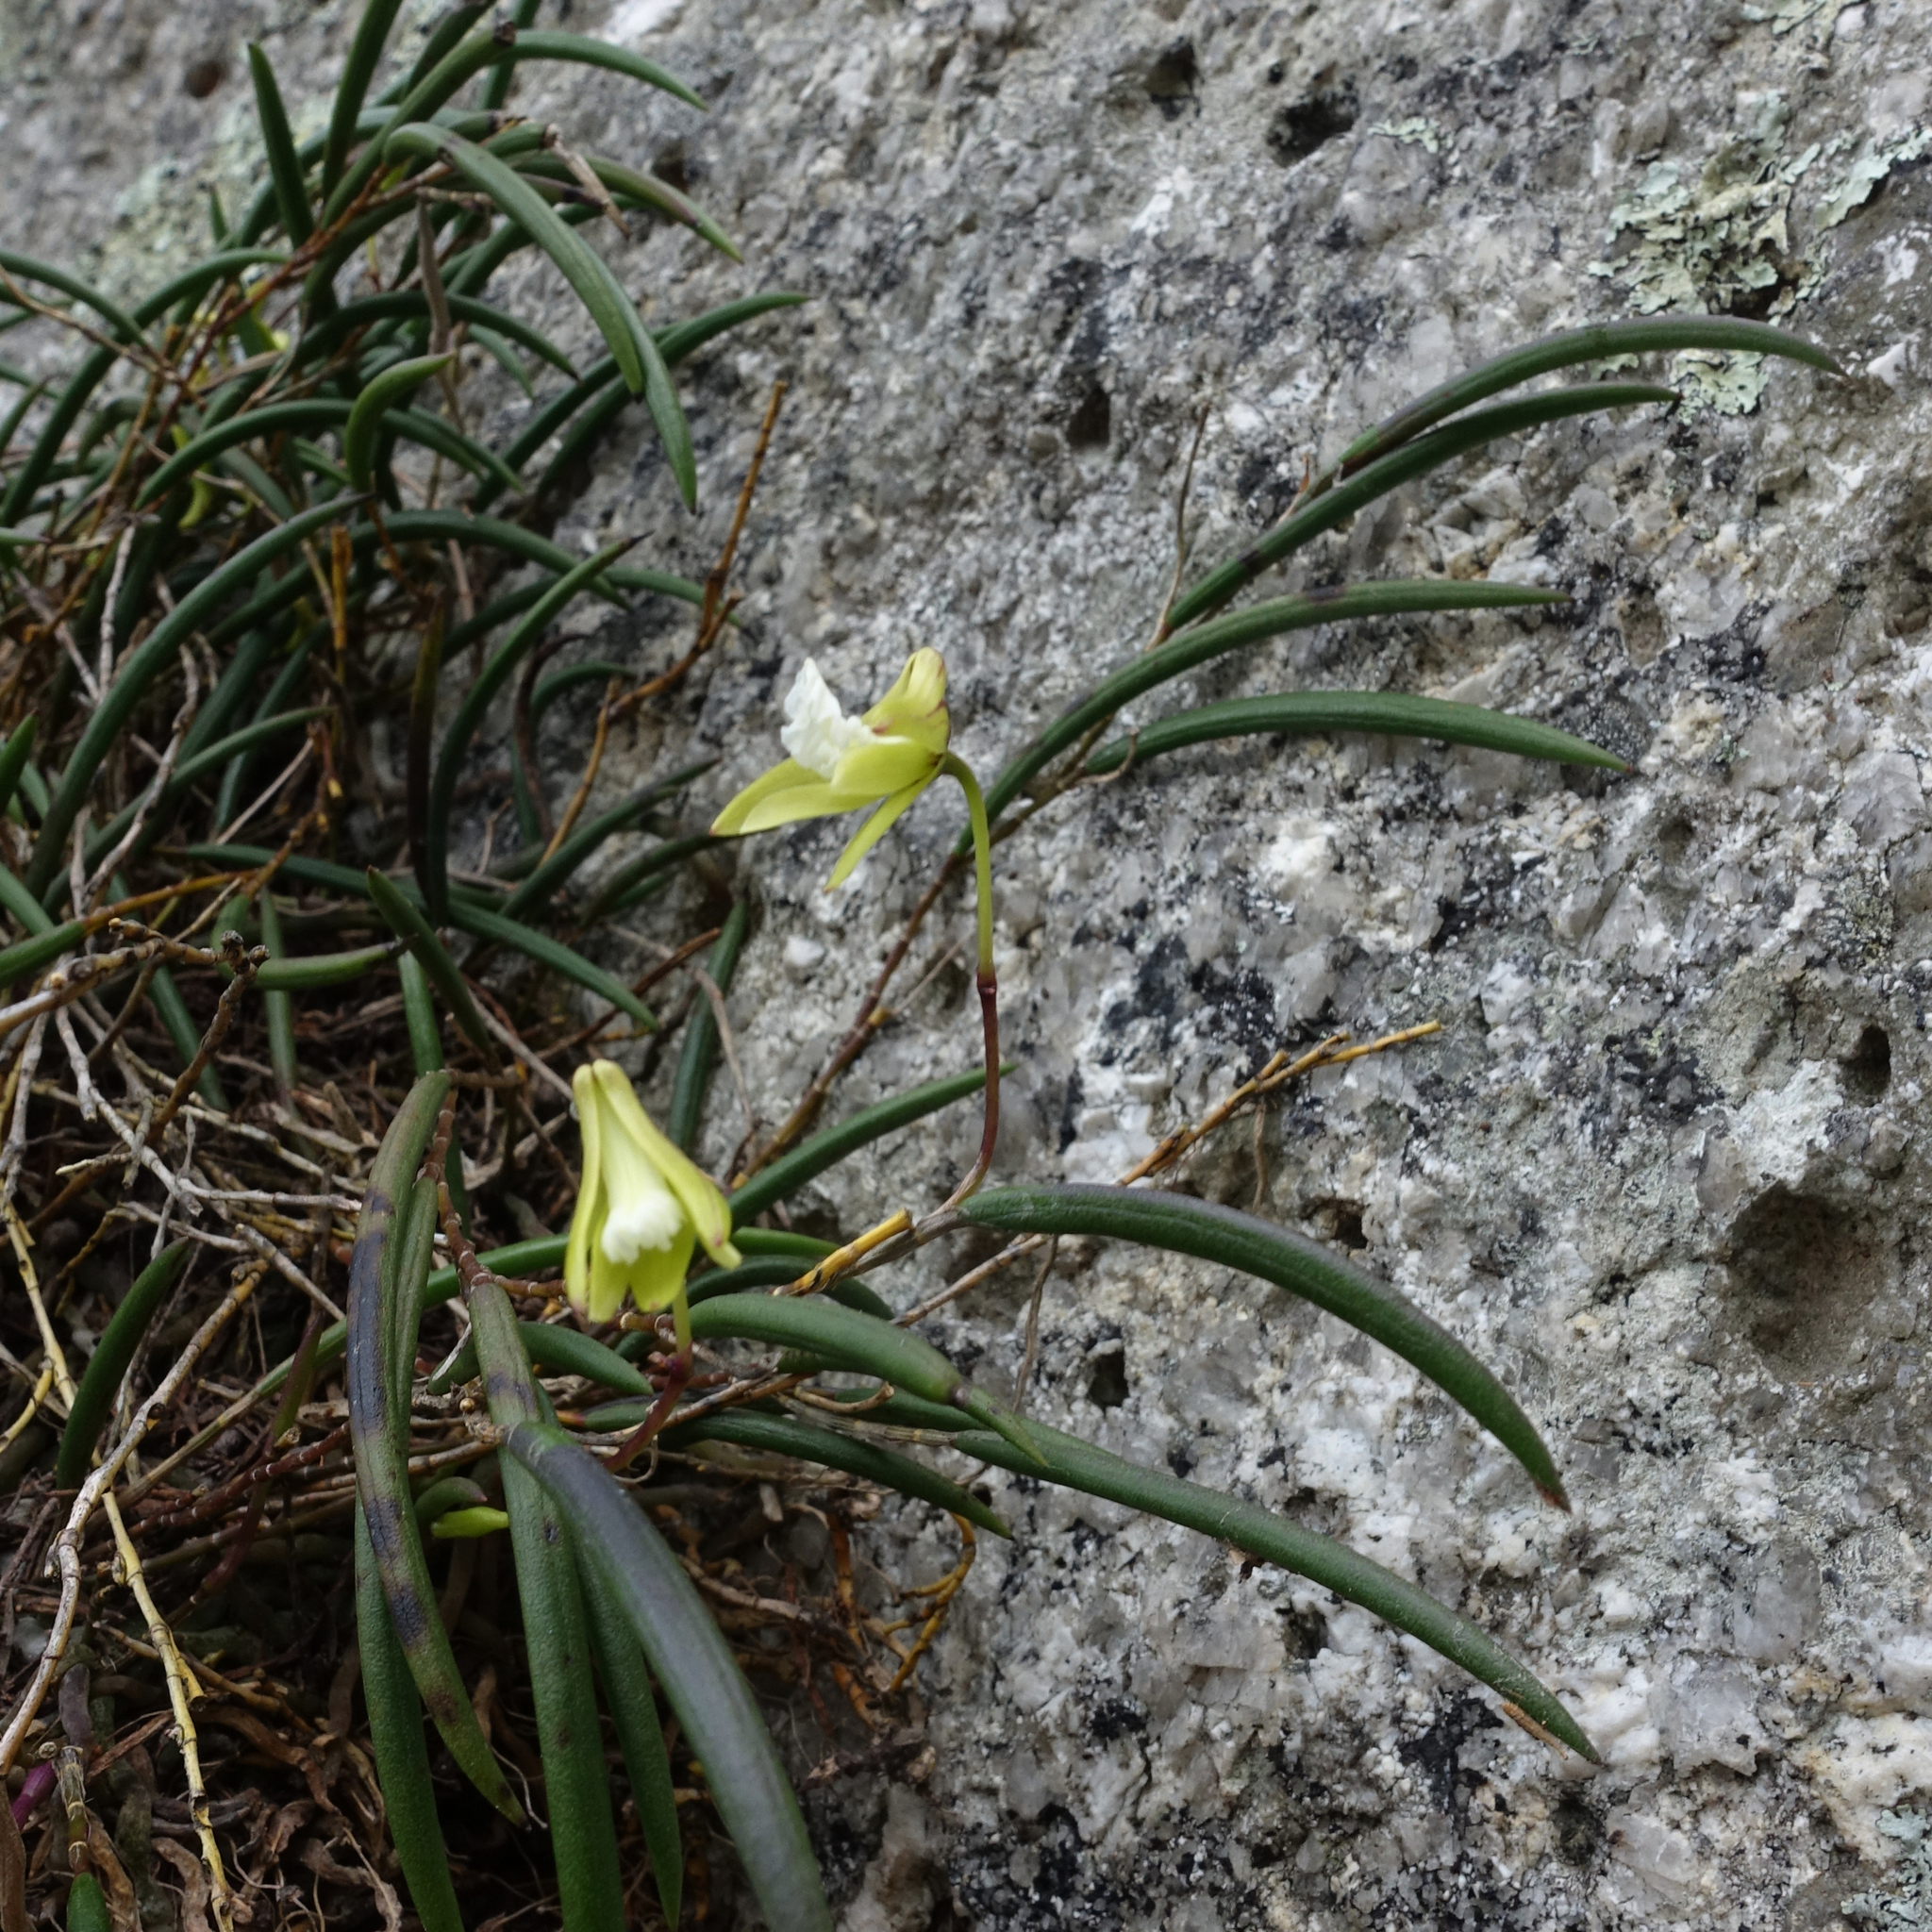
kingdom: Plantae
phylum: Tracheophyta
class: Liliopsida
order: Asparagales
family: Orchidaceae
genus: Dendrobium
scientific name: Dendrobium striolatum
